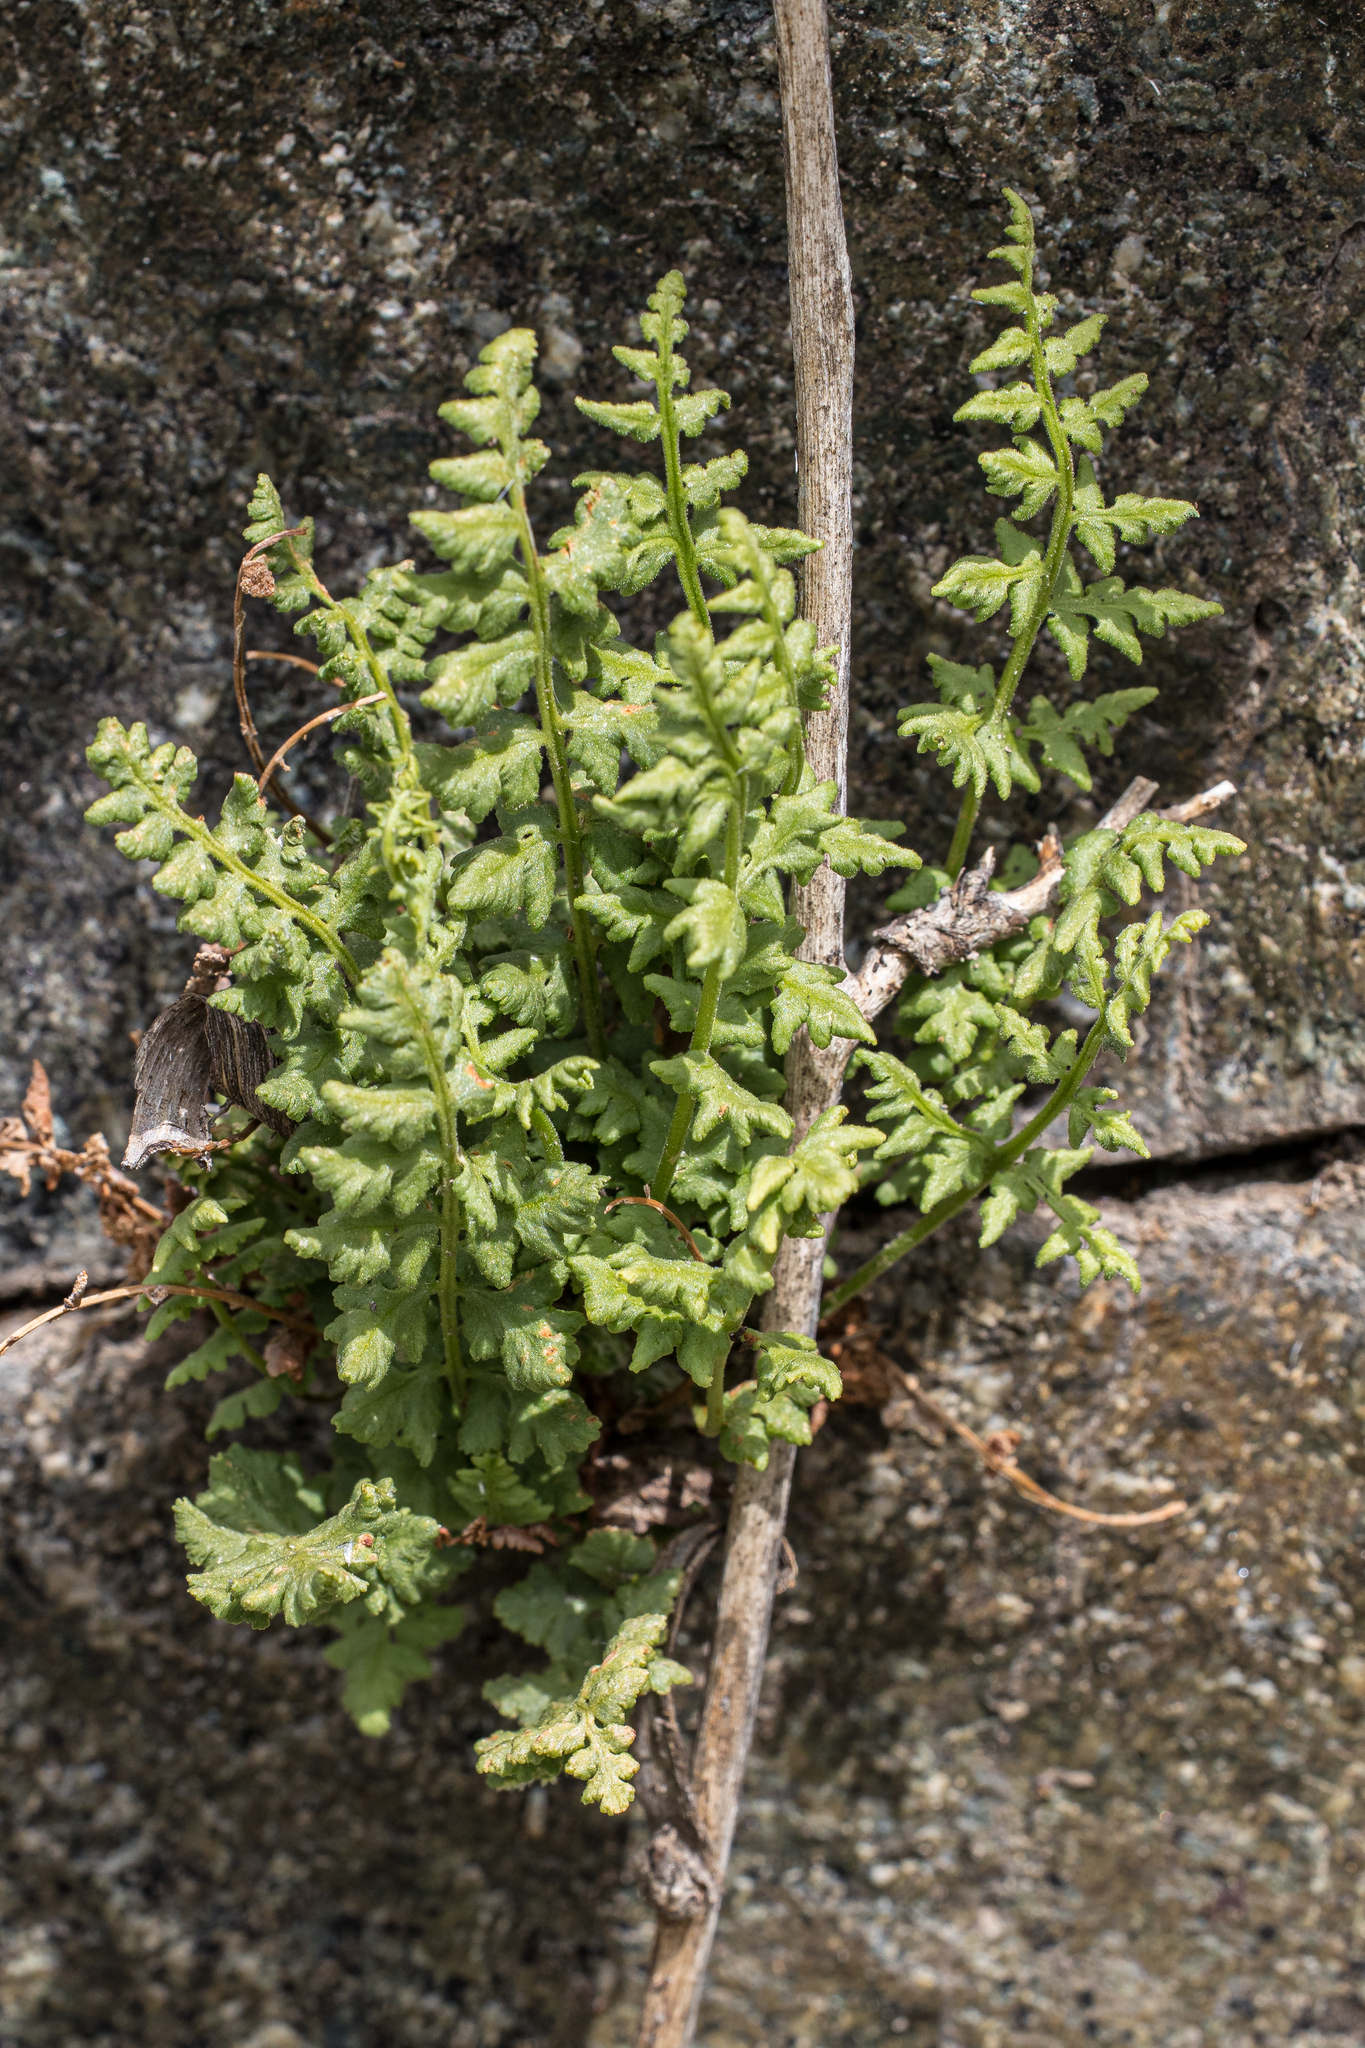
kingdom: Plantae
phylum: Tracheophyta
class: Polypodiopsida
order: Polypodiales
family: Woodsiaceae
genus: Physematium
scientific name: Physematium oreganum
